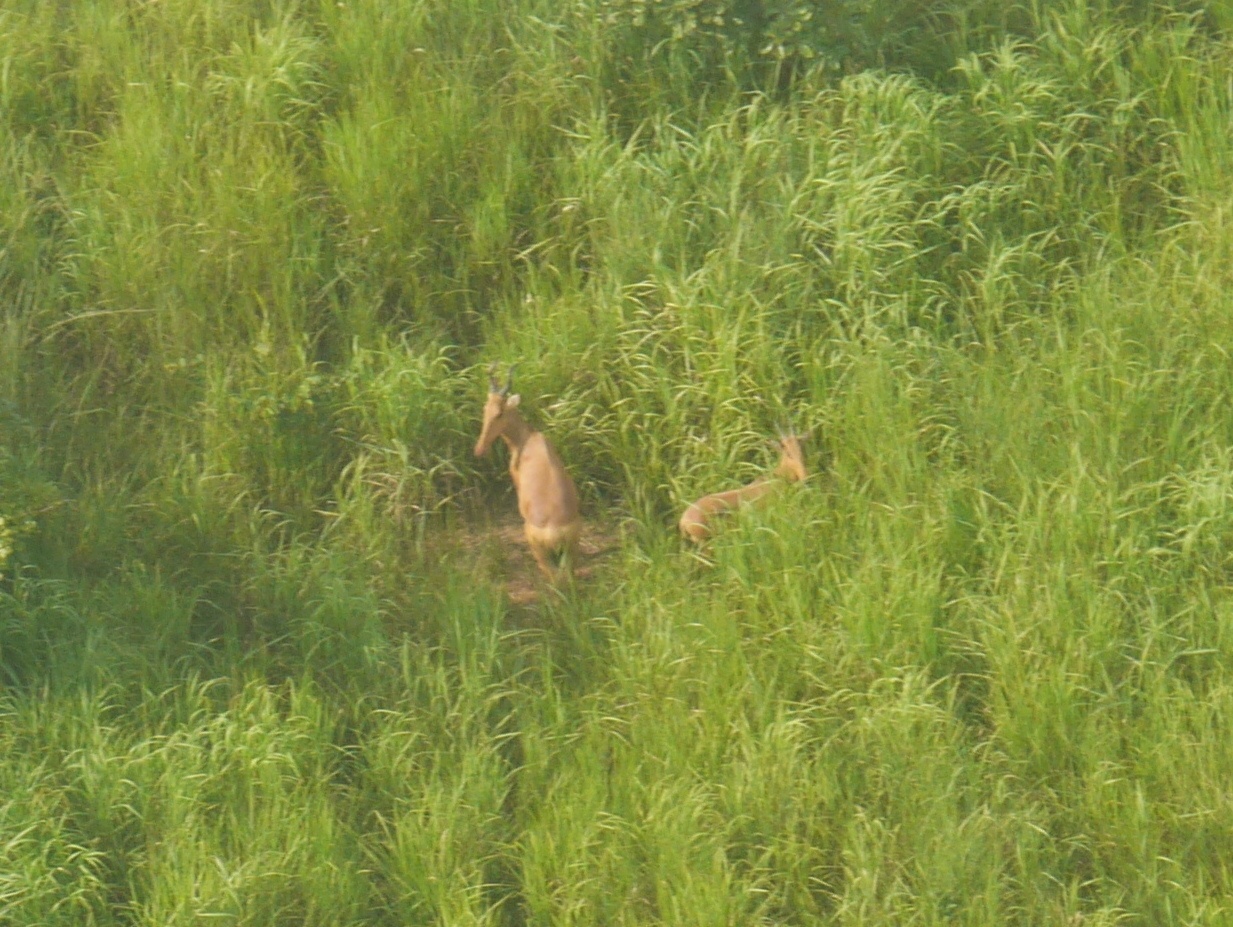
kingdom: Animalia
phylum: Chordata
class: Mammalia
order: Artiodactyla
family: Bovidae
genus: Alcelaphus
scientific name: Alcelaphus buselaphus
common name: Hartebeest
